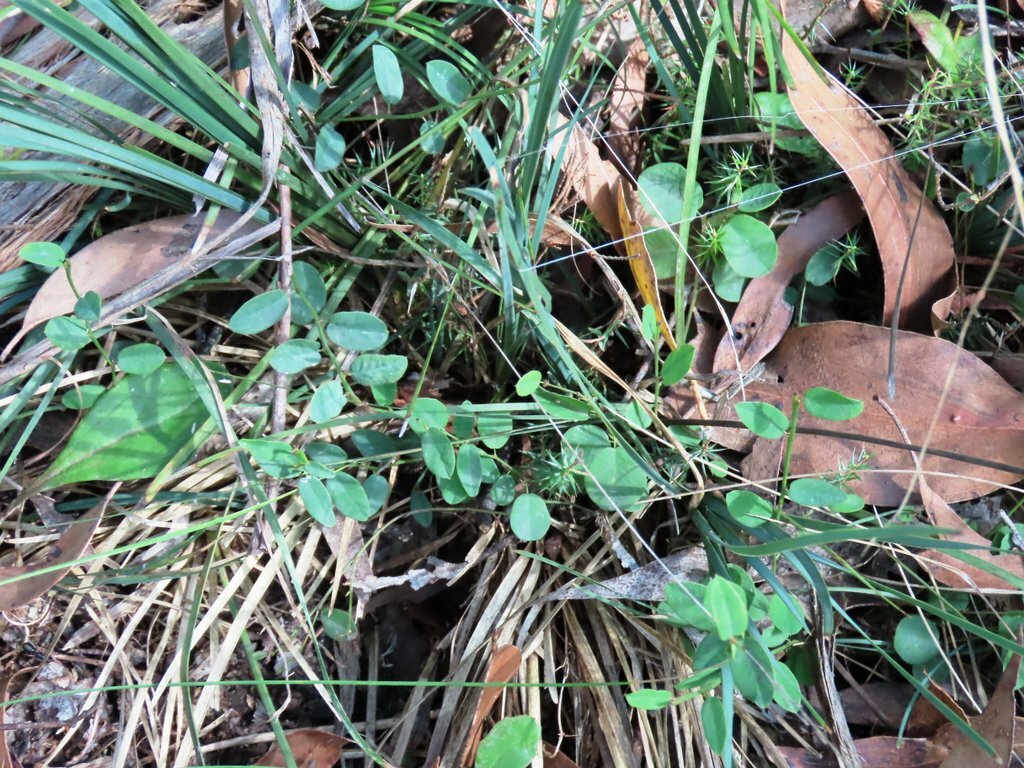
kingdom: Plantae
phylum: Tracheophyta
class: Magnoliopsida
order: Fabales
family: Fabaceae
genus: Bossiaea
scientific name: Bossiaea prostrata
